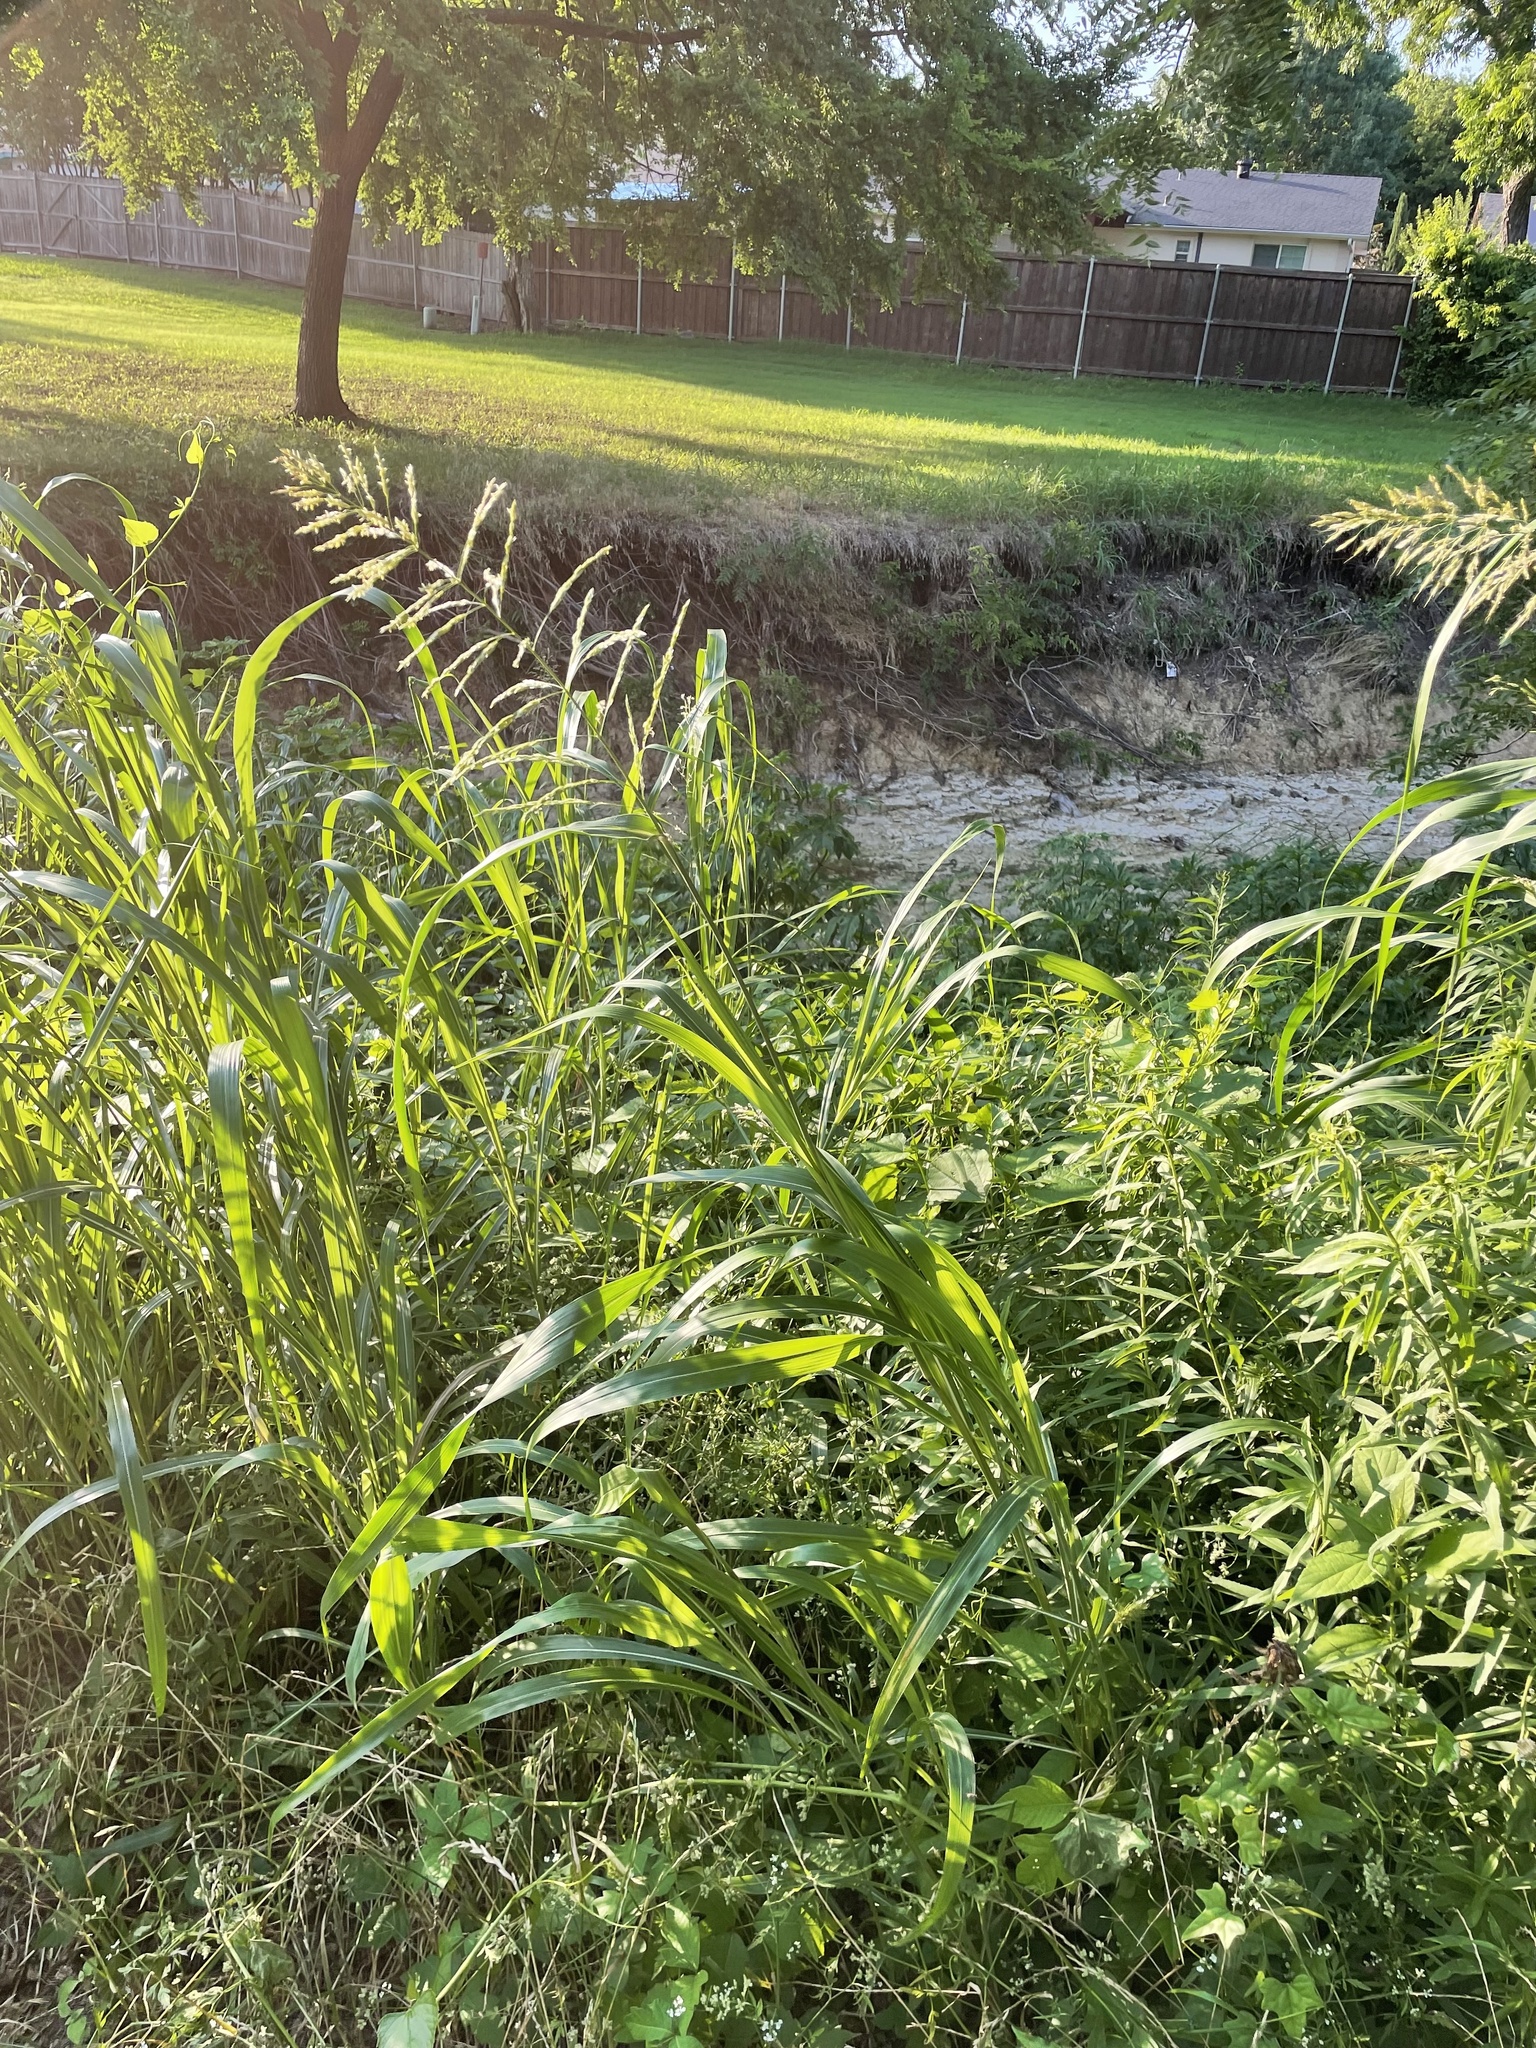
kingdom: Plantae
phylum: Tracheophyta
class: Liliopsida
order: Poales
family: Poaceae
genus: Sorghum
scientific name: Sorghum halepense
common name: Johnson-grass
